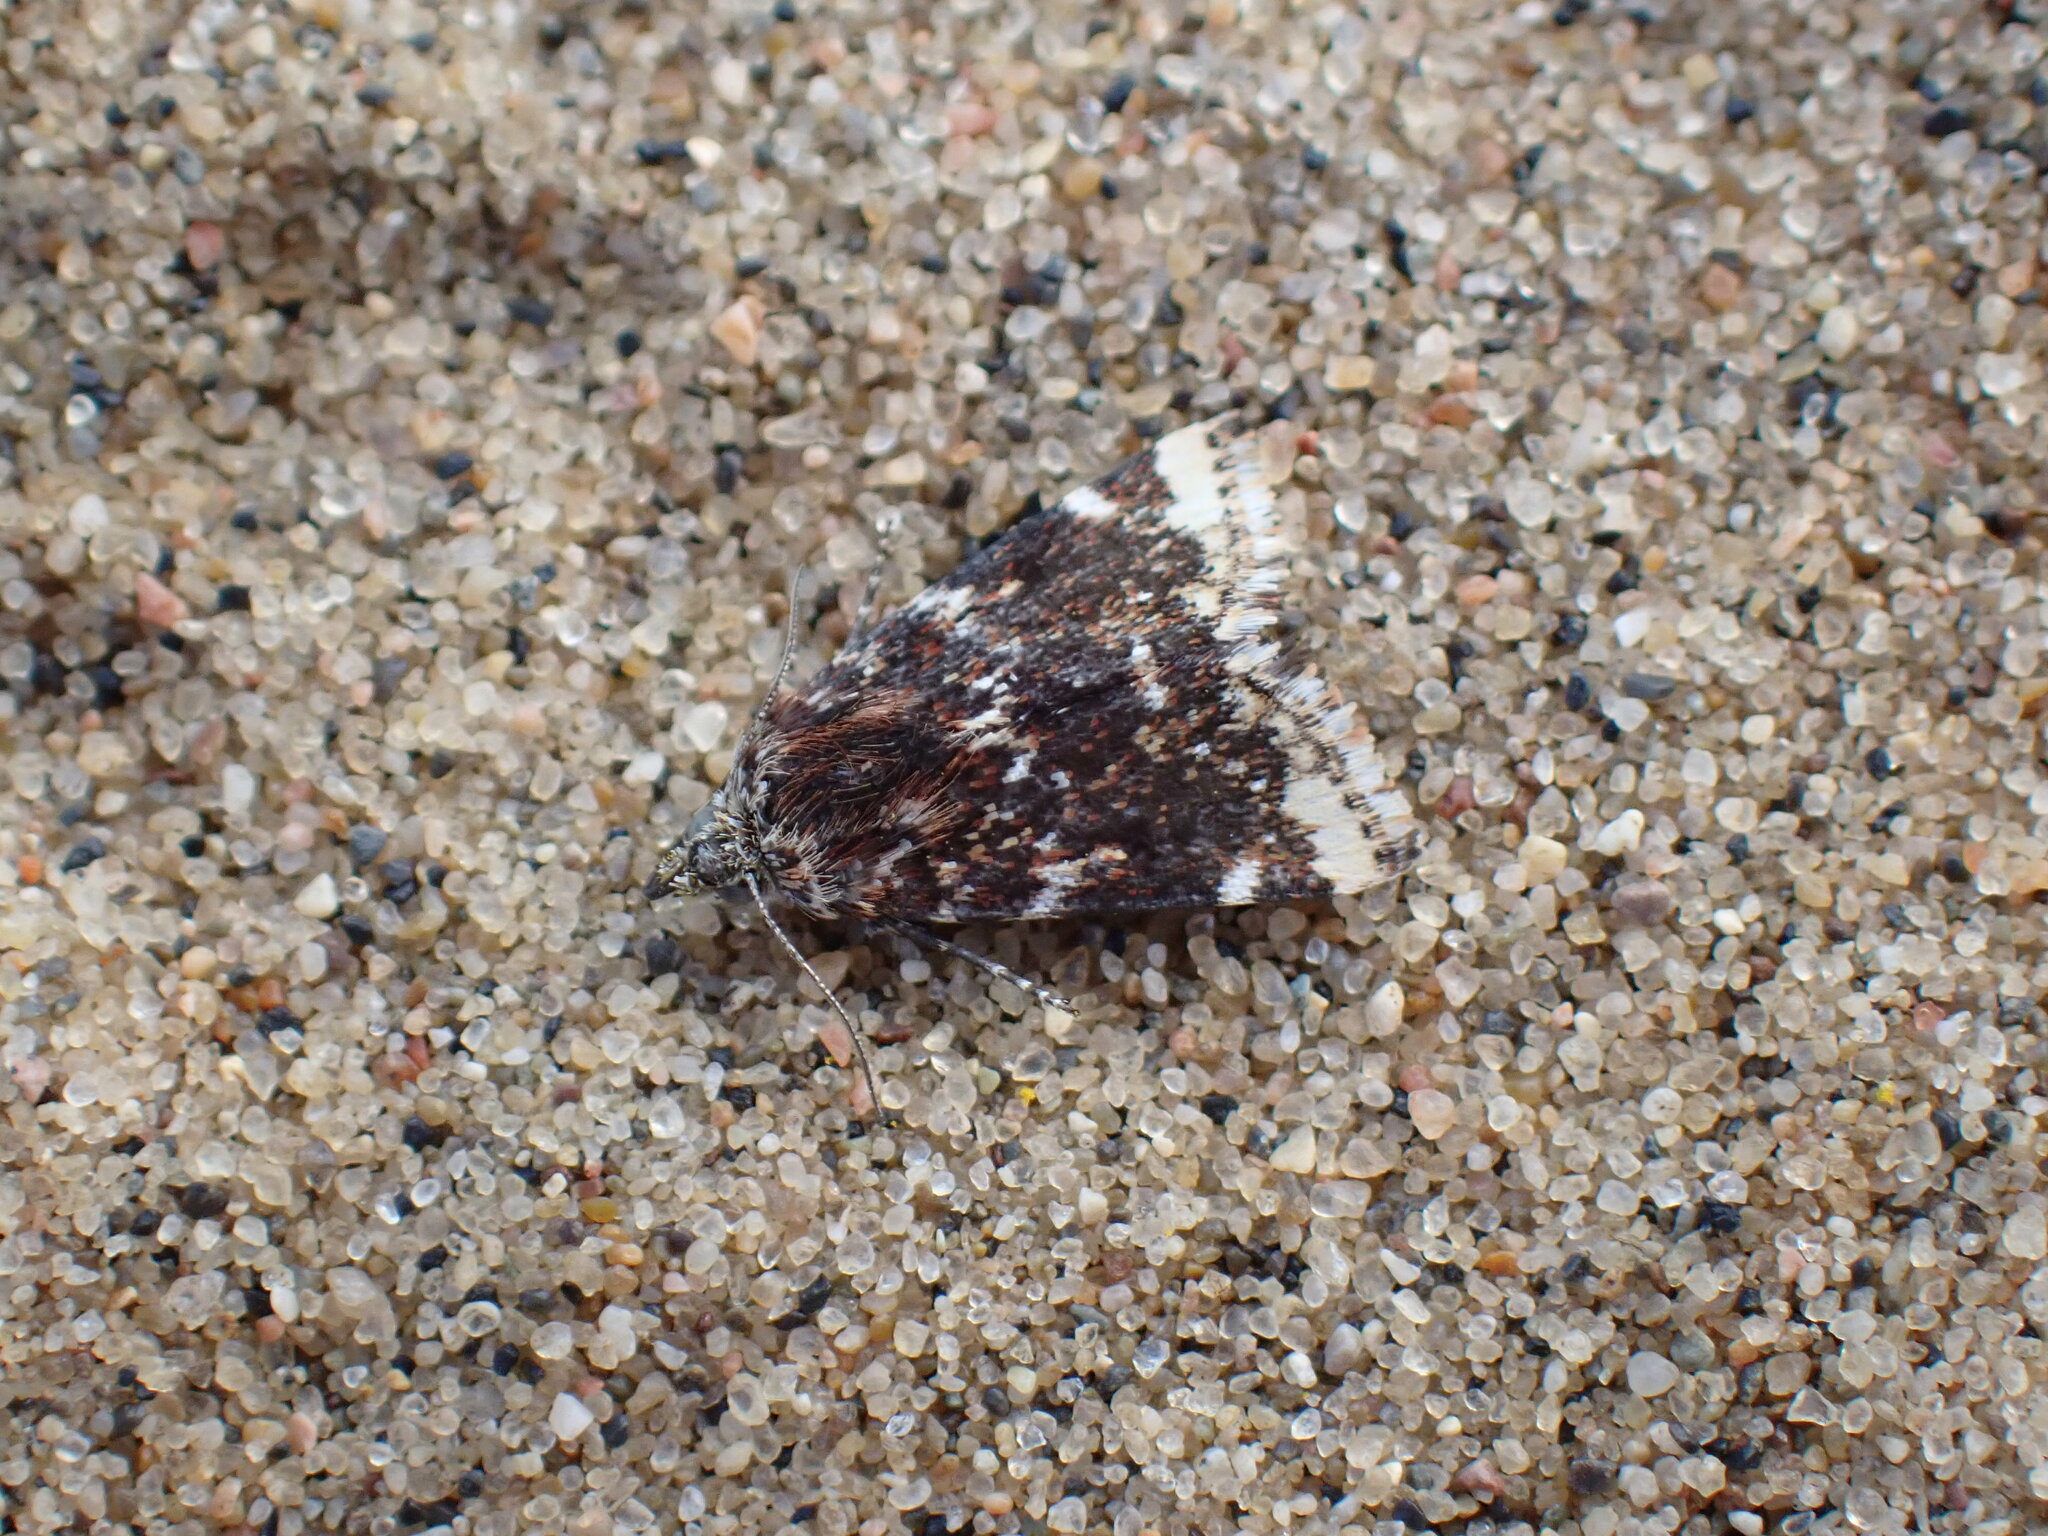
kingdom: Animalia
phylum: Arthropoda
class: Insecta
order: Lepidoptera
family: Noctuidae
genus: Schinia
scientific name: Schinia avemensis
